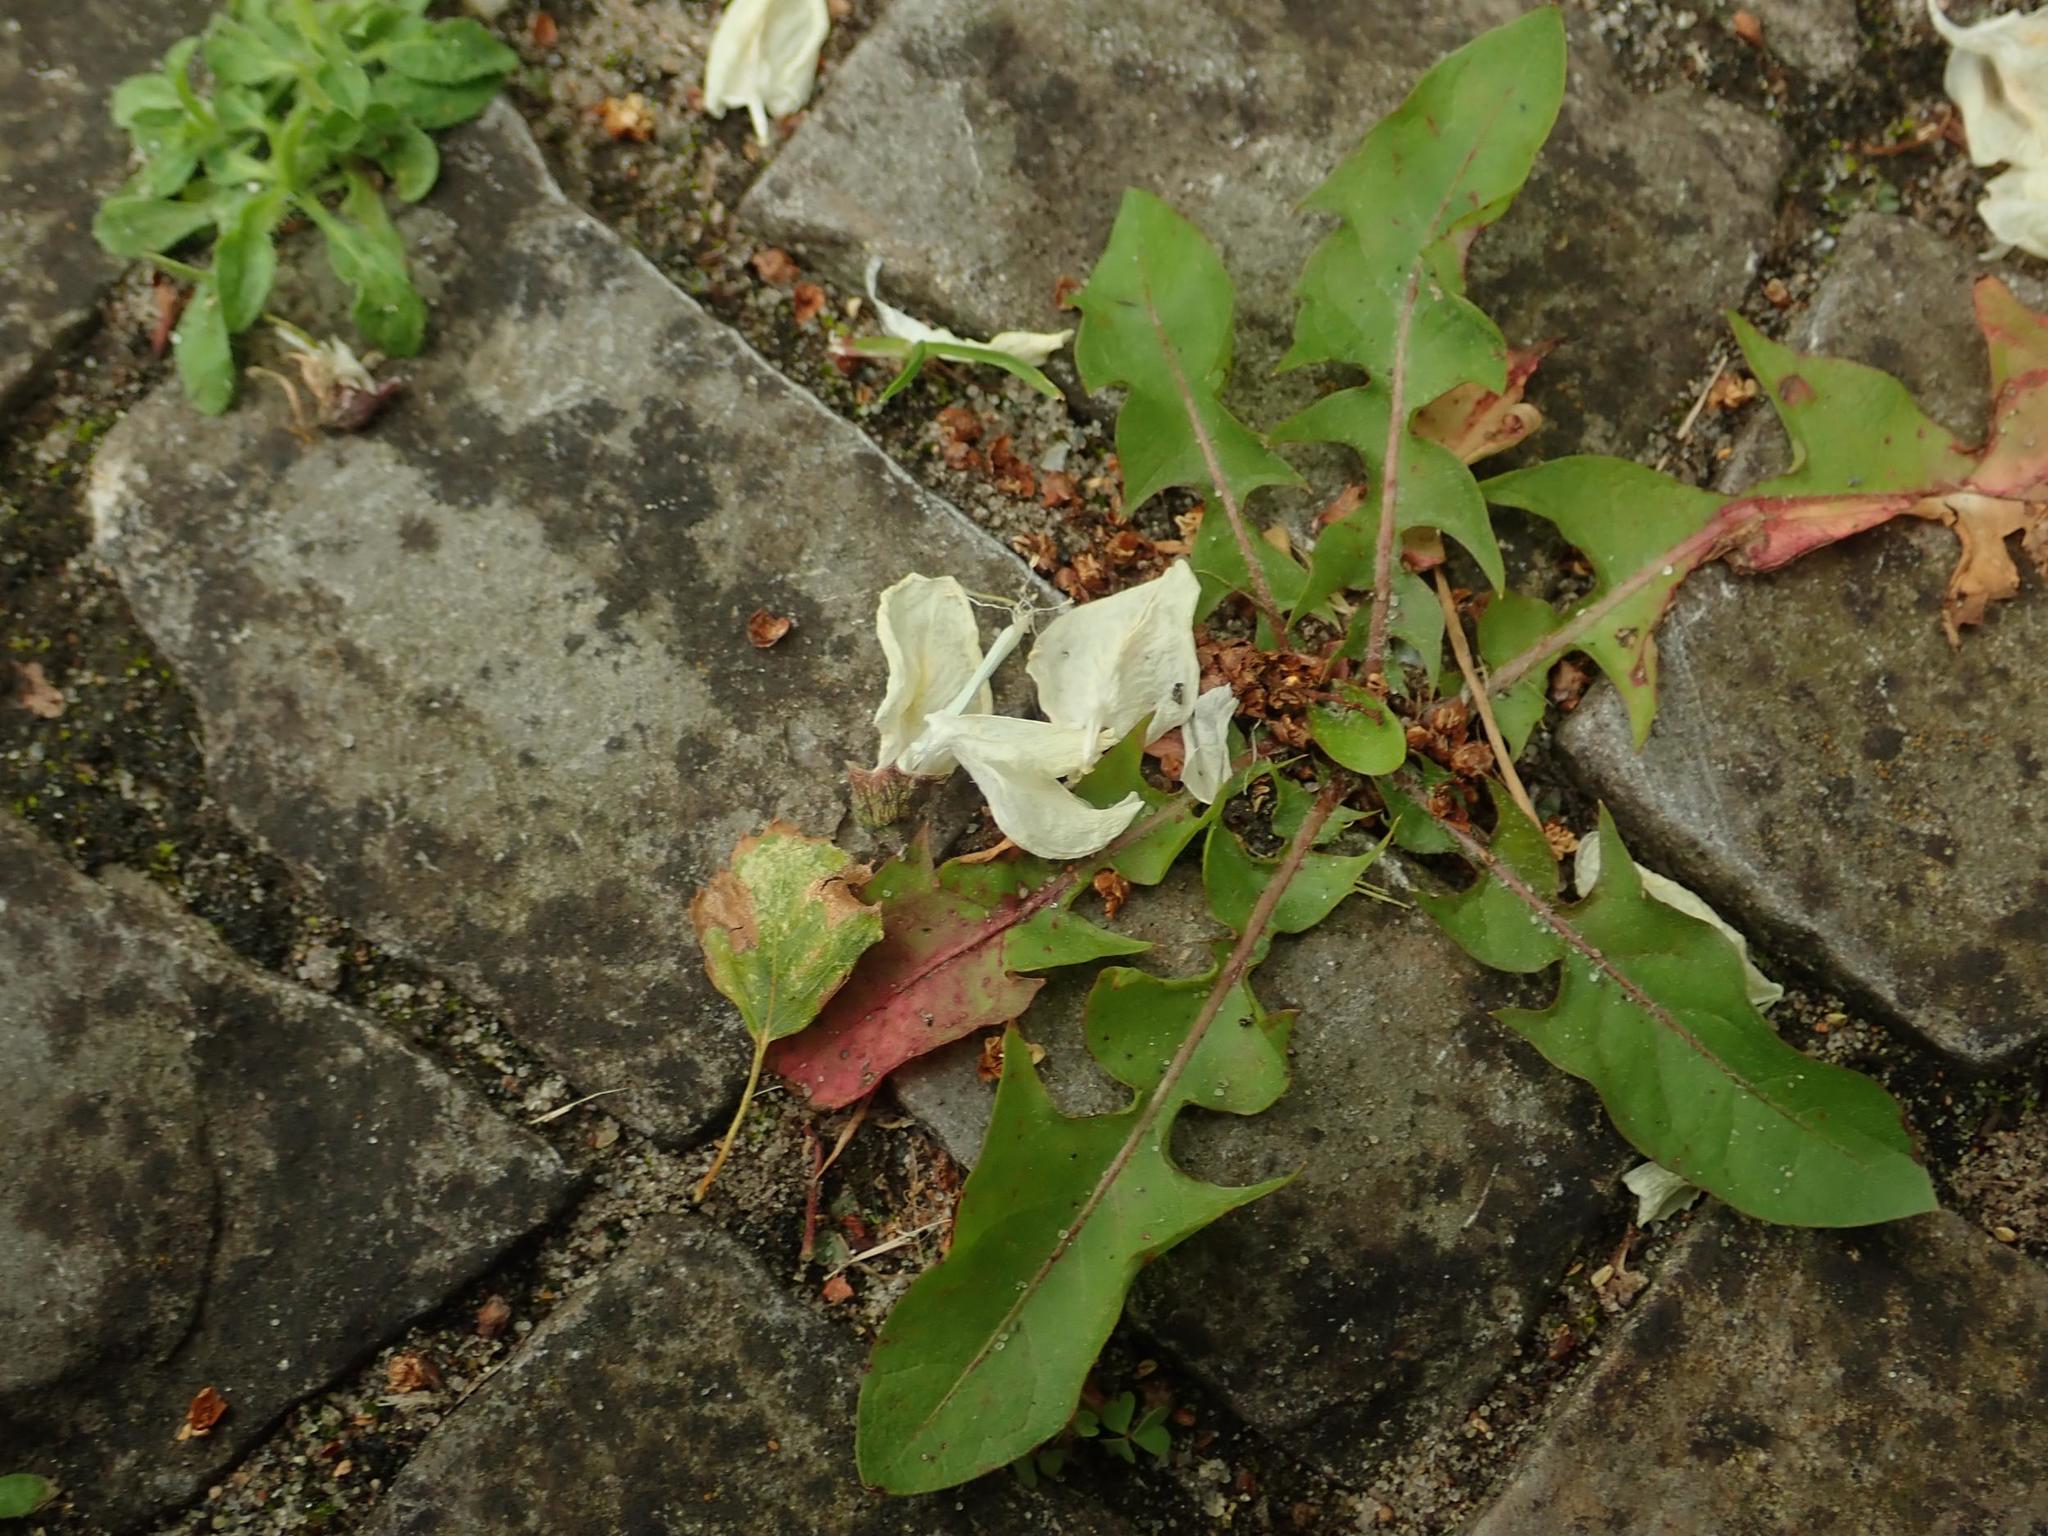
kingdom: Plantae
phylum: Tracheophyta
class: Magnoliopsida
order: Asterales
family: Asteraceae
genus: Taraxacum
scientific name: Taraxacum officinale
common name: Common dandelion
